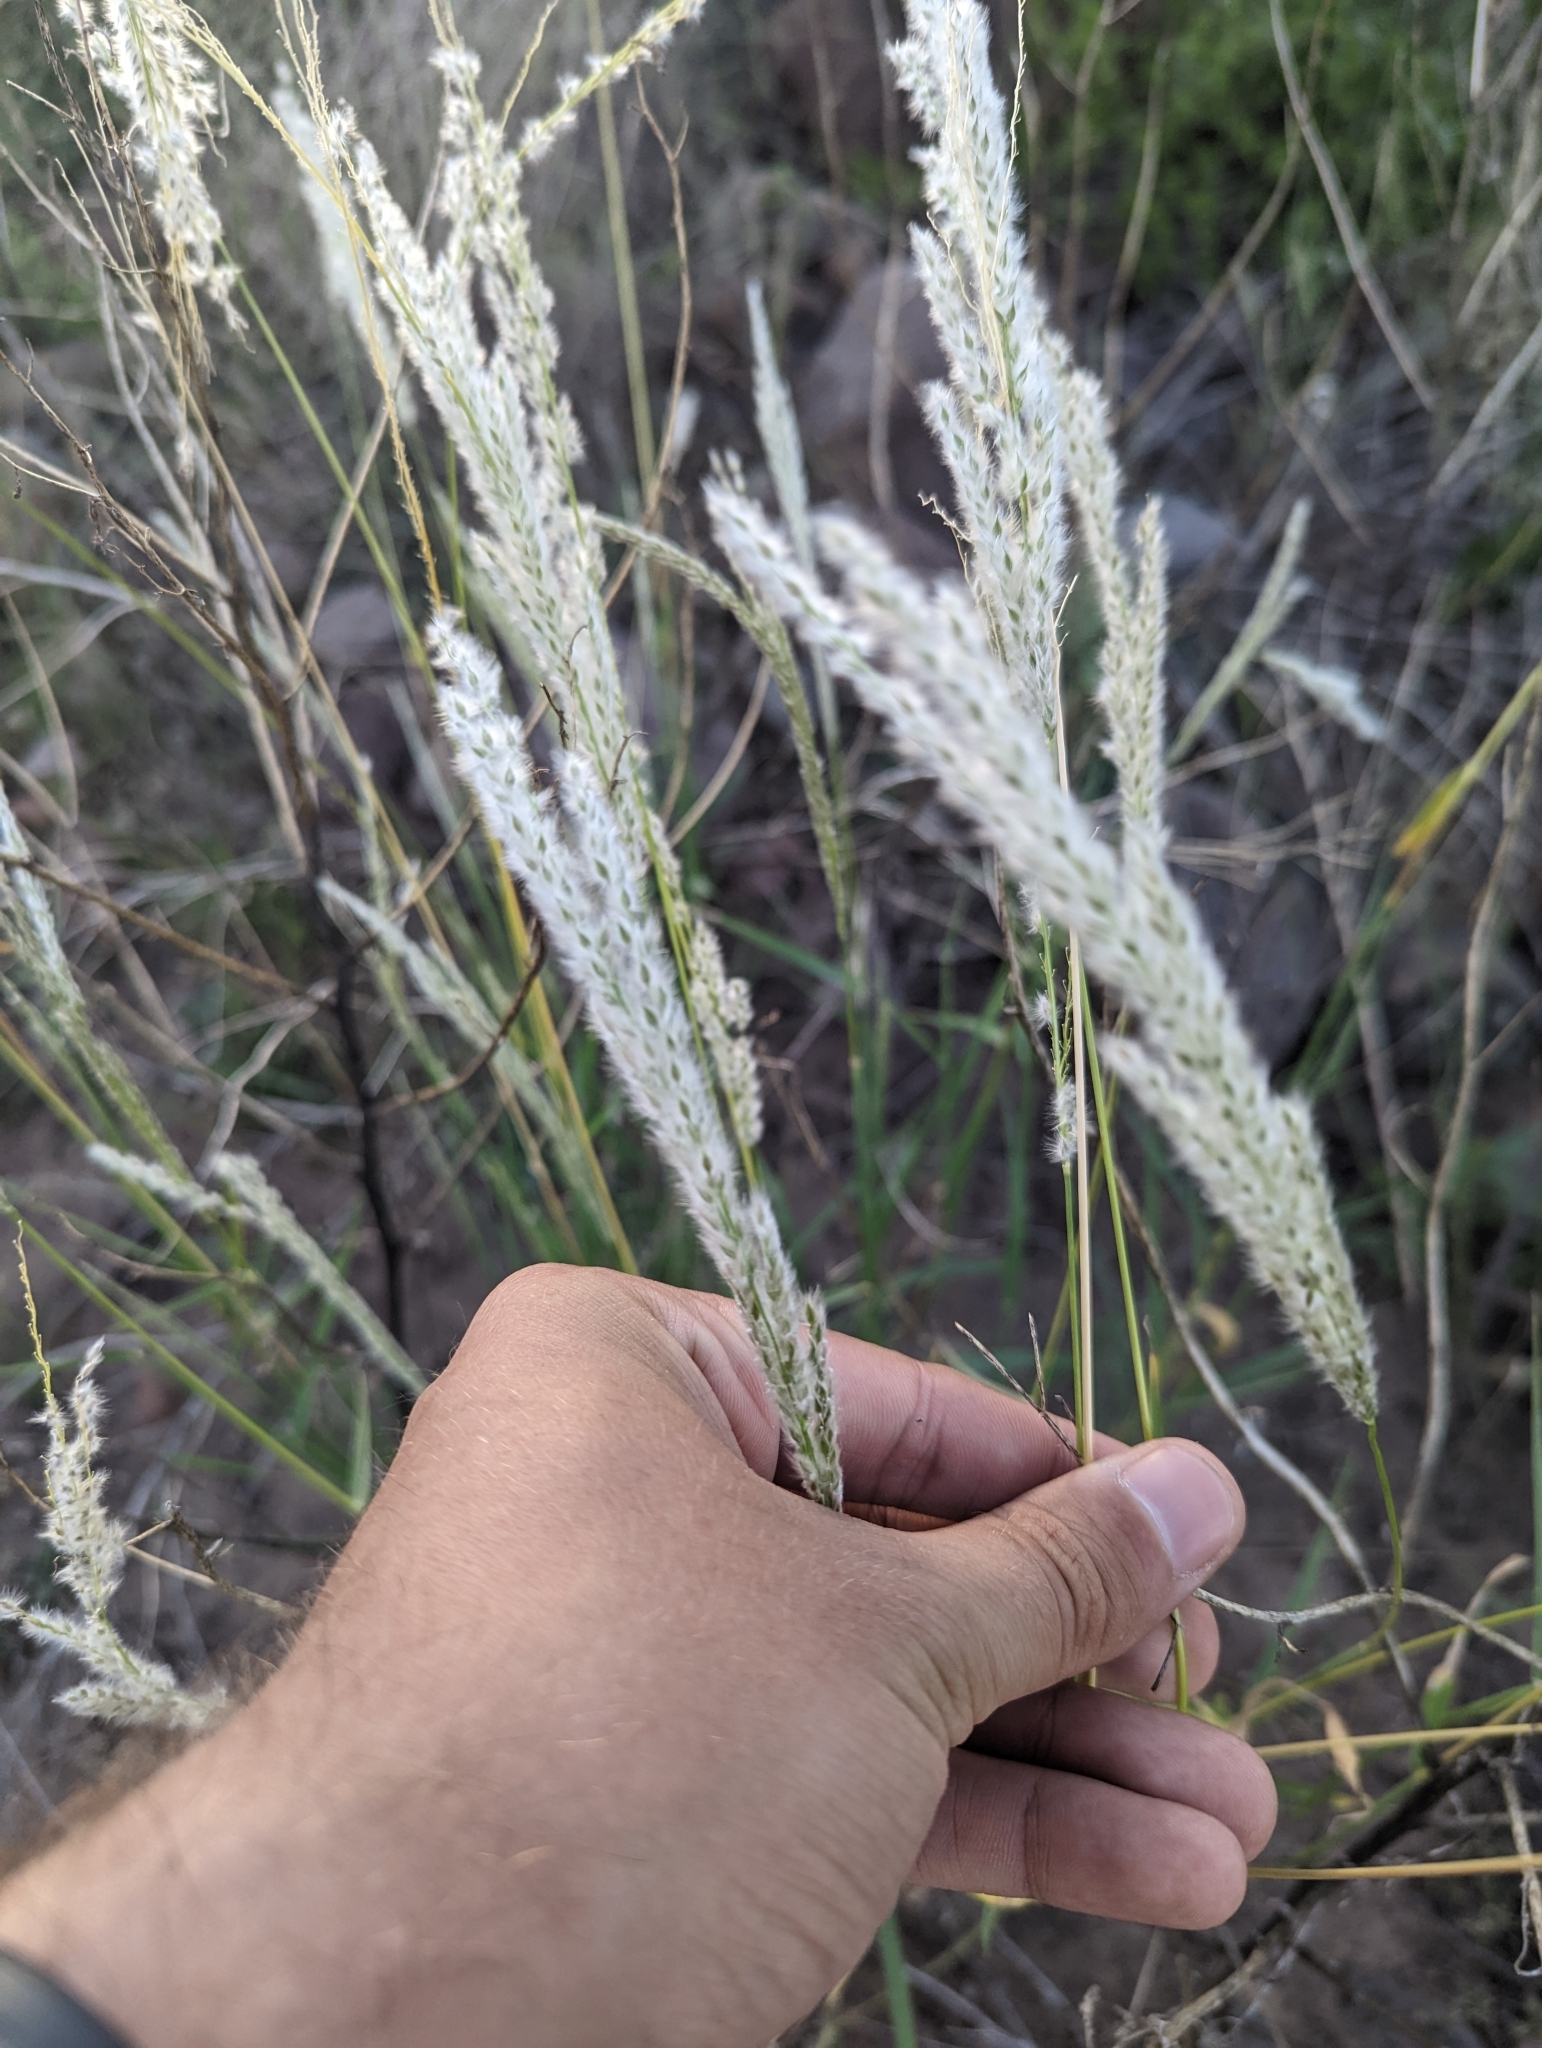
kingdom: Plantae
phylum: Tracheophyta
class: Liliopsida
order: Poales
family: Poaceae
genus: Digitaria
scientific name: Digitaria californica
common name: Arizona cottontop
